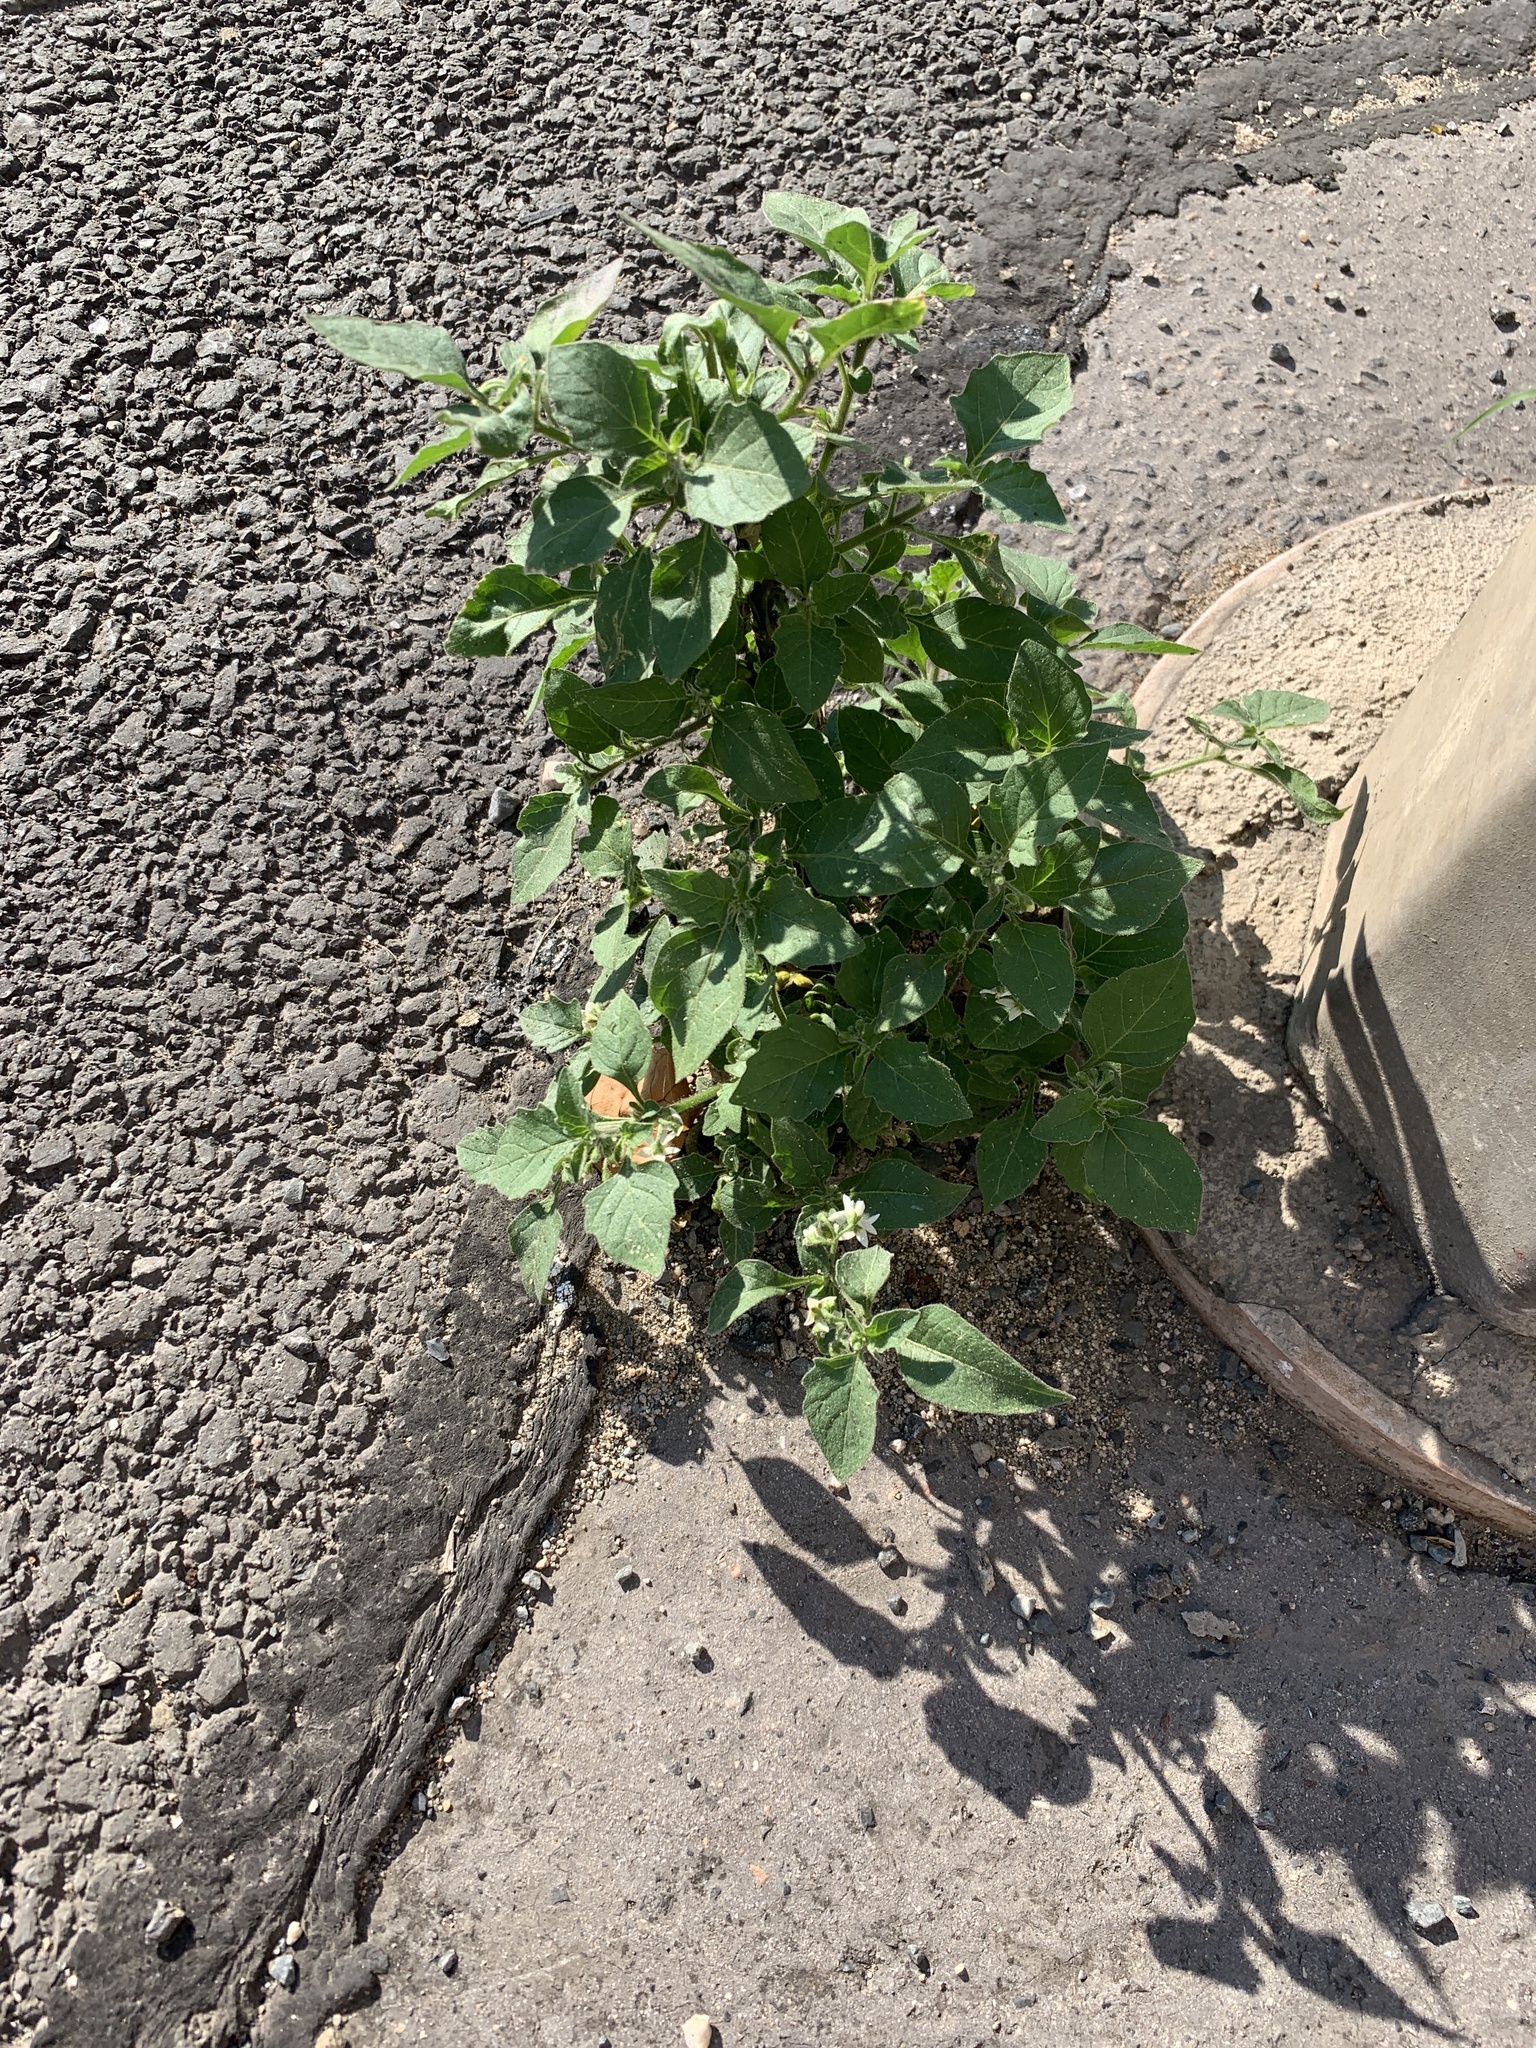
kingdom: Plantae
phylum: Tracheophyta
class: Magnoliopsida
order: Solanales
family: Solanaceae
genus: Solanum
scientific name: Solanum nigrum
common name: Black nightshade
